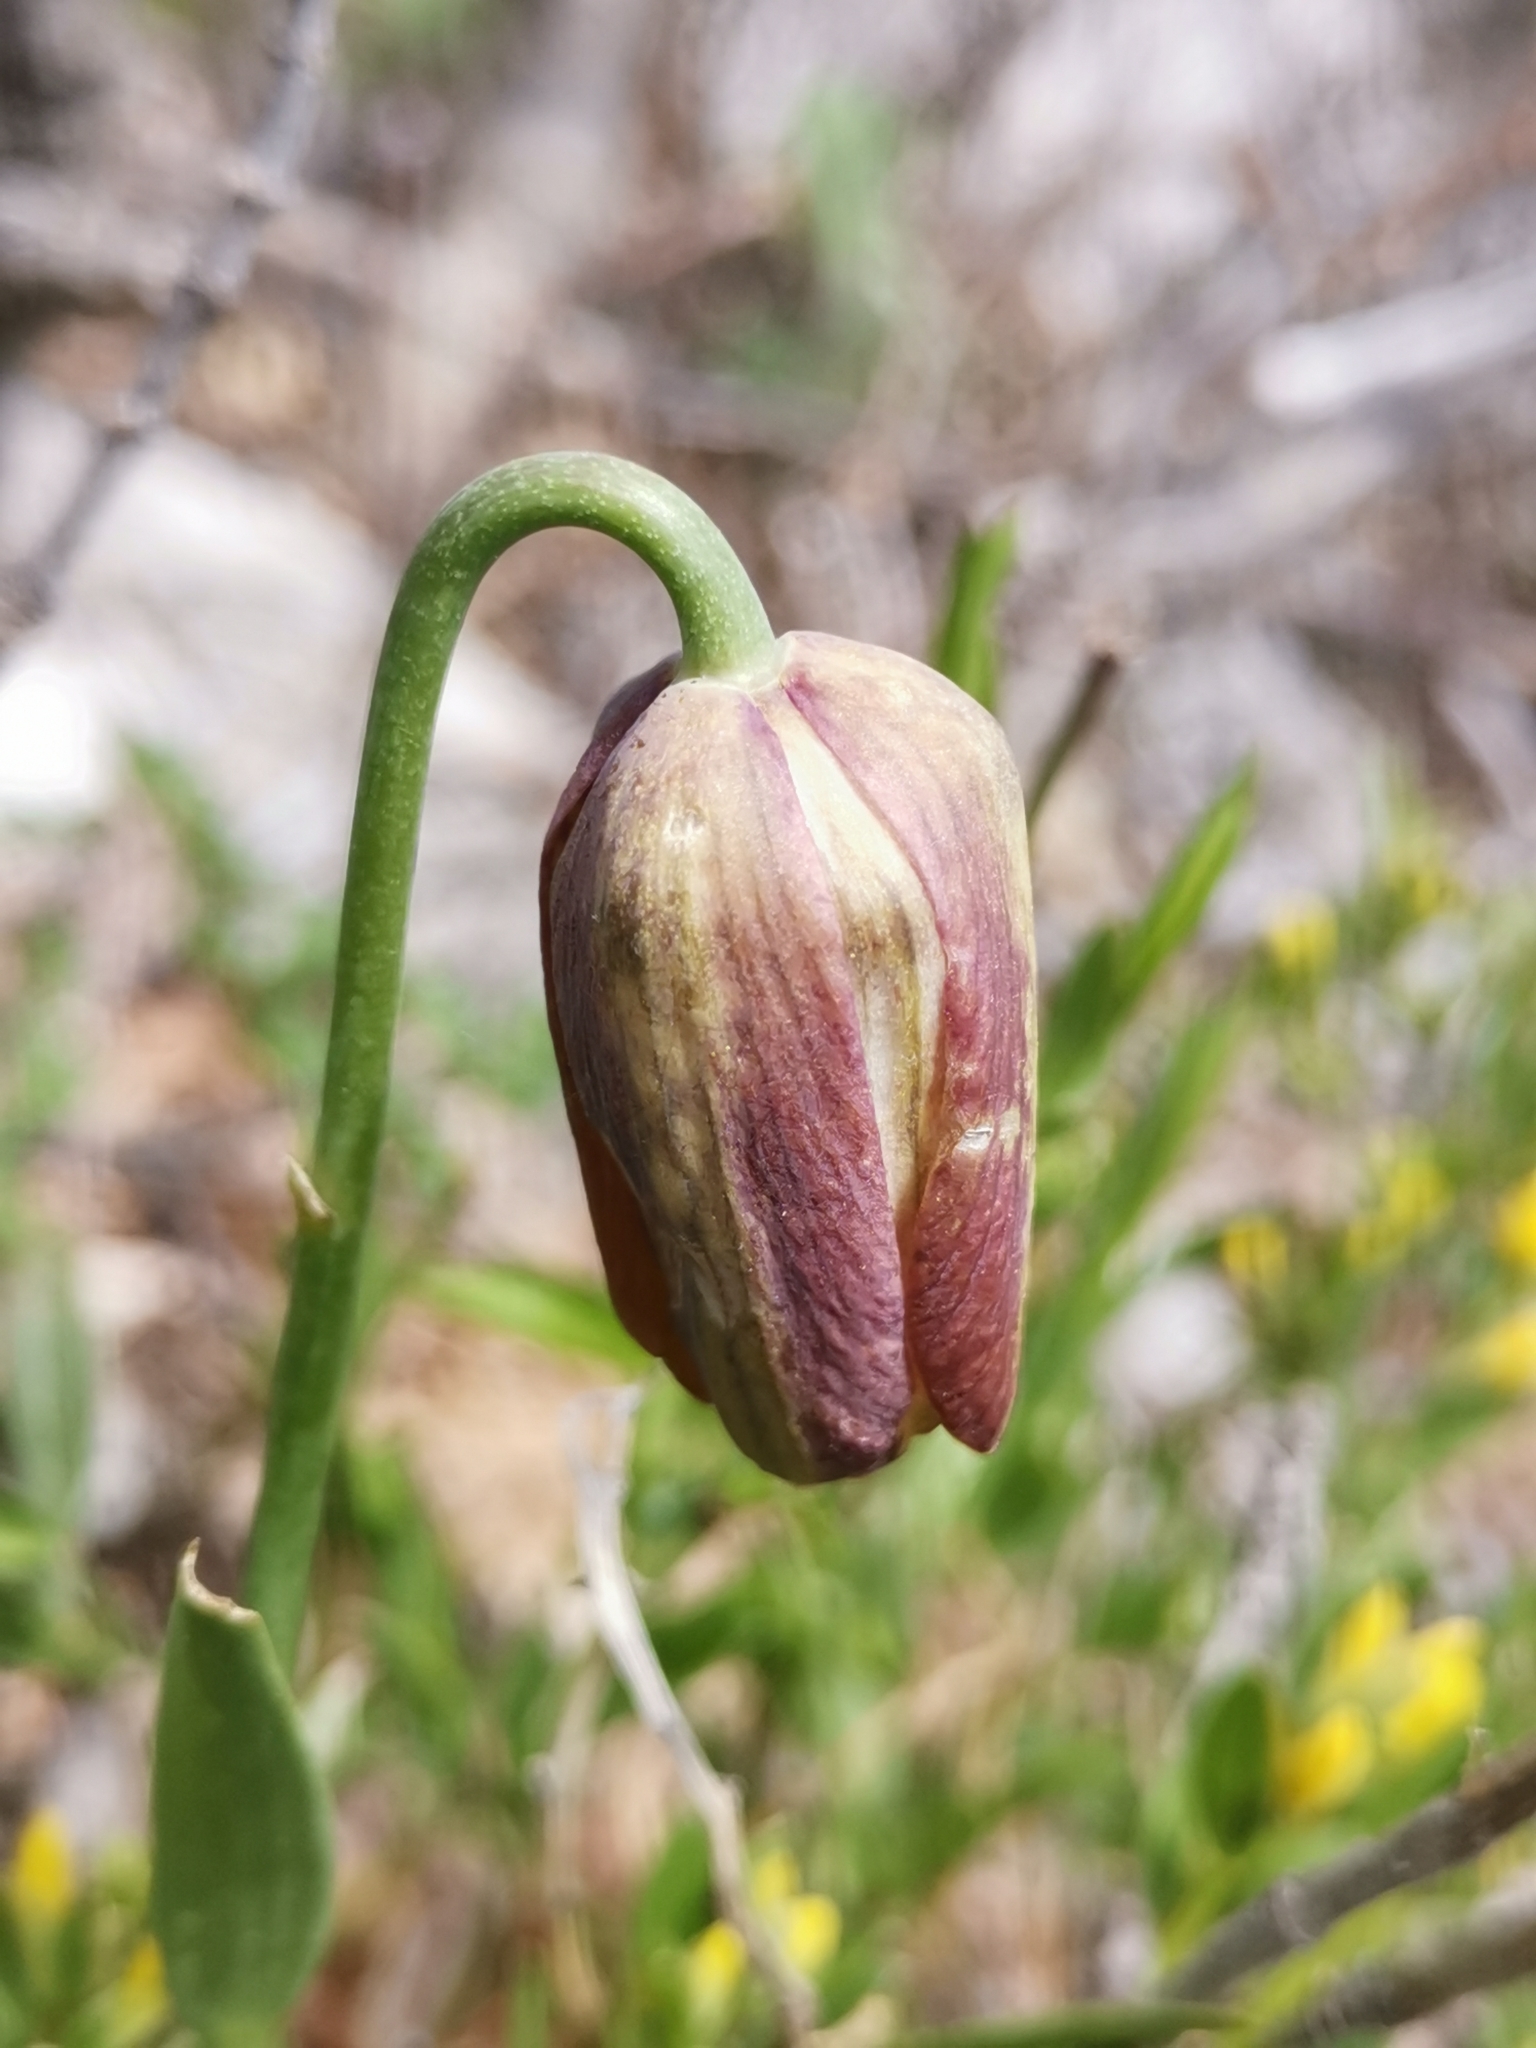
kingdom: Plantae
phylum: Tracheophyta
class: Liliopsida
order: Liliales
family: Liliaceae
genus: Fritillaria
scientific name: Fritillaria montana
